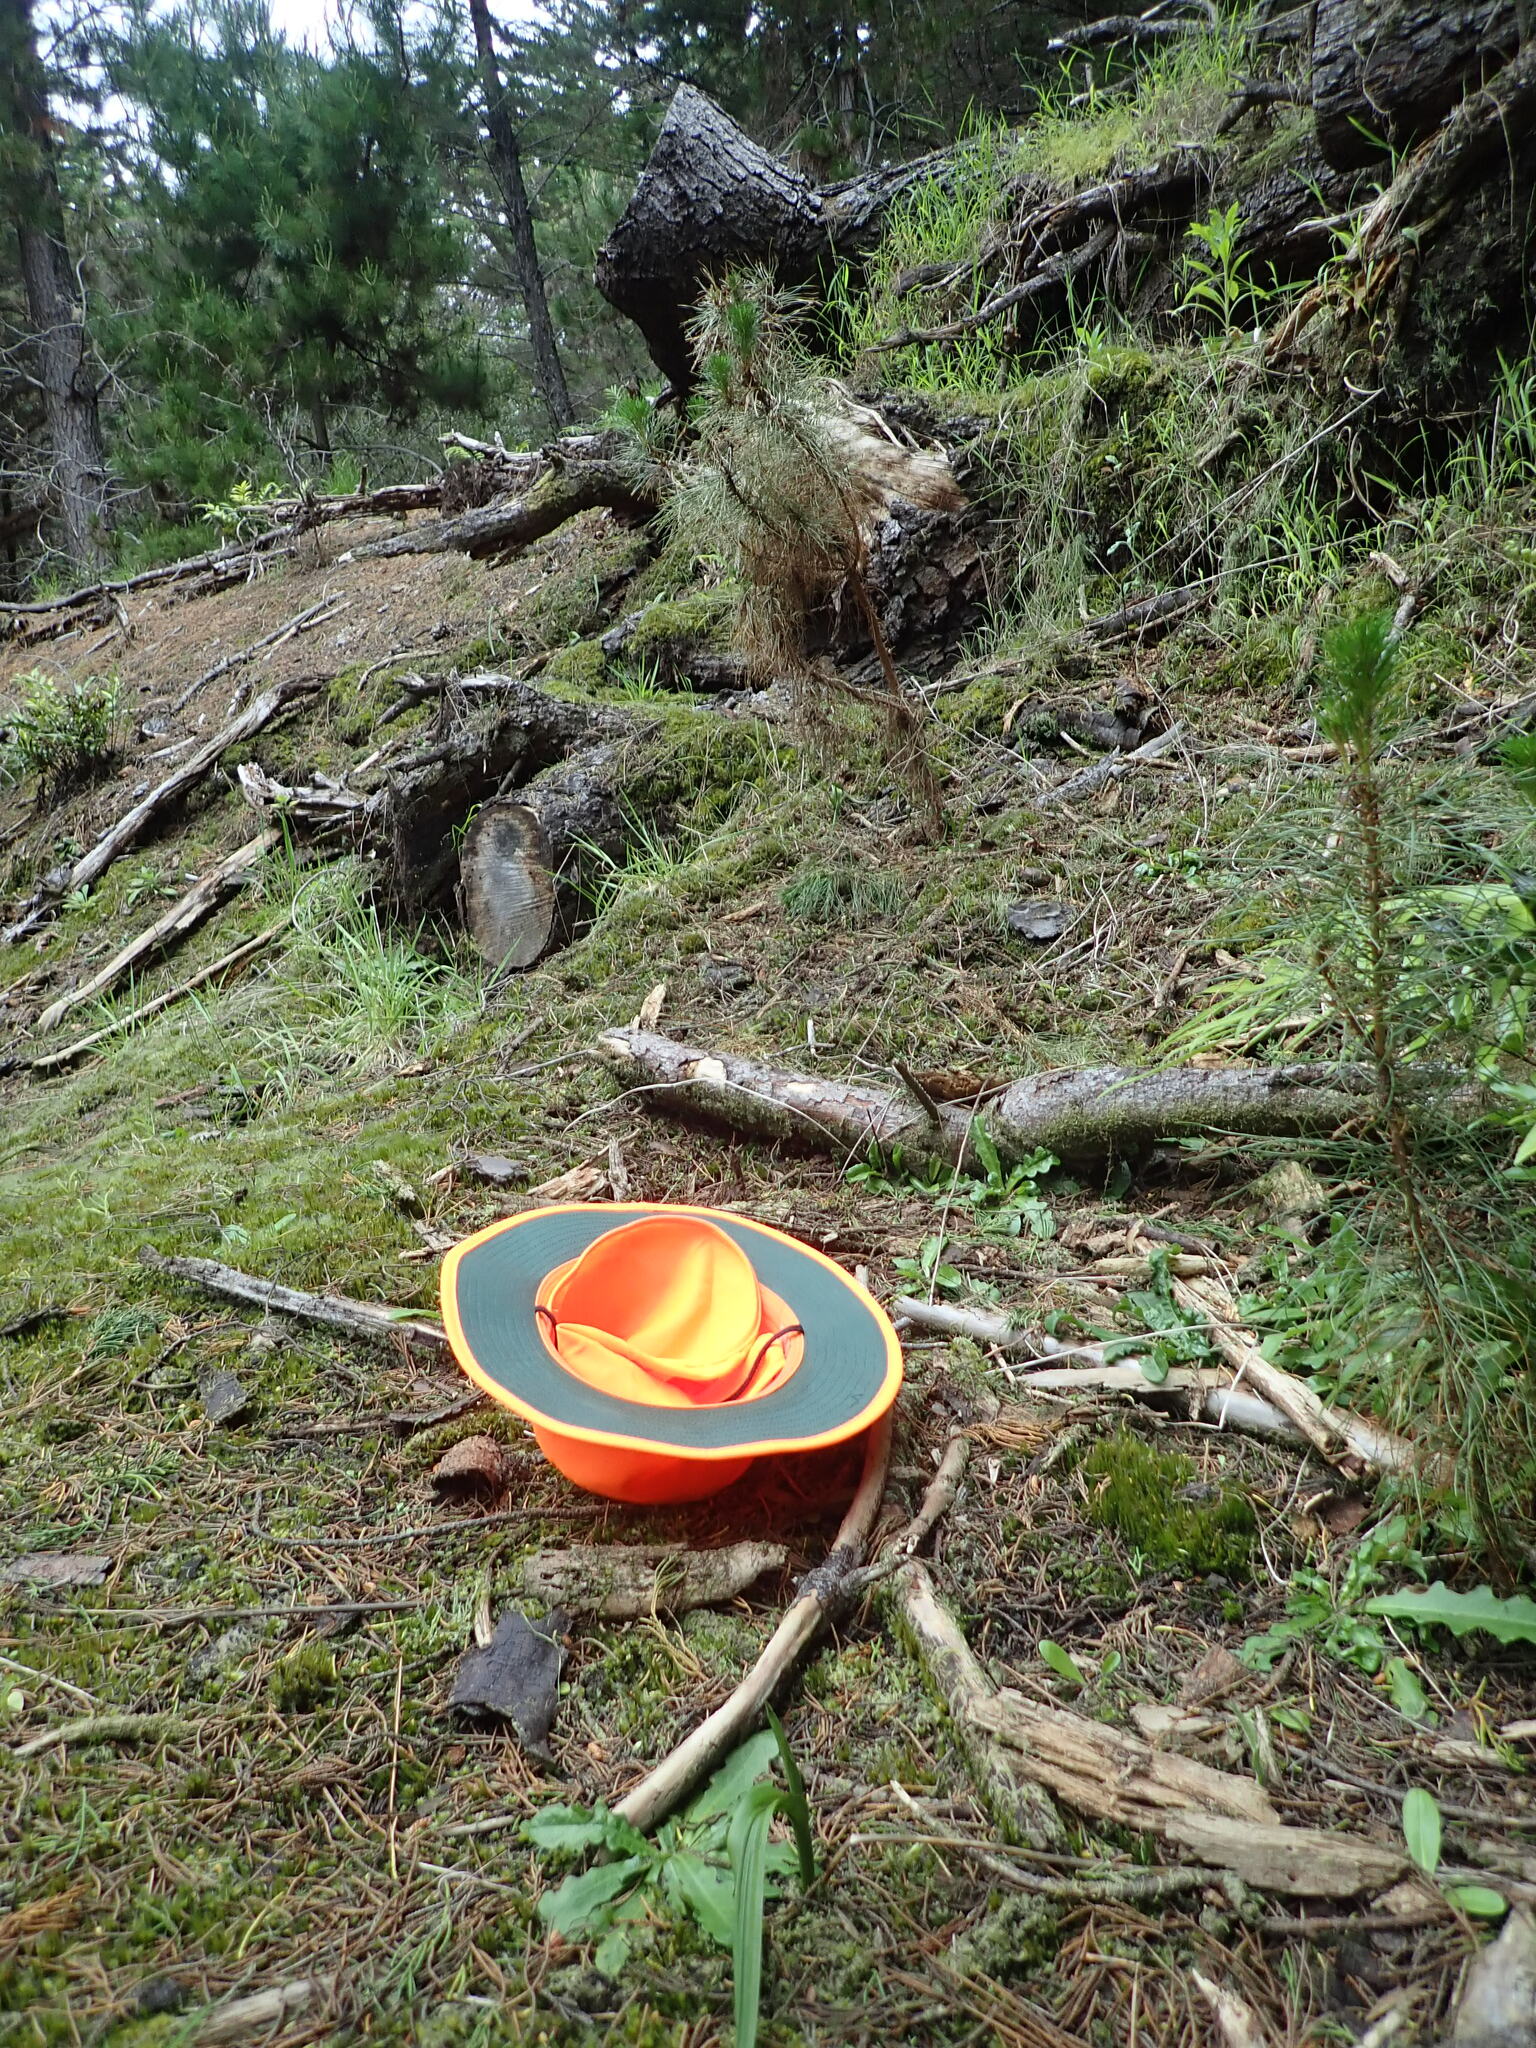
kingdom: Plantae
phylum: Bryophyta
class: Bryopsida
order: Dicranales
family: Leucobryaceae
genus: Campylopus
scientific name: Campylopus introflexus
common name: Heath star moss
